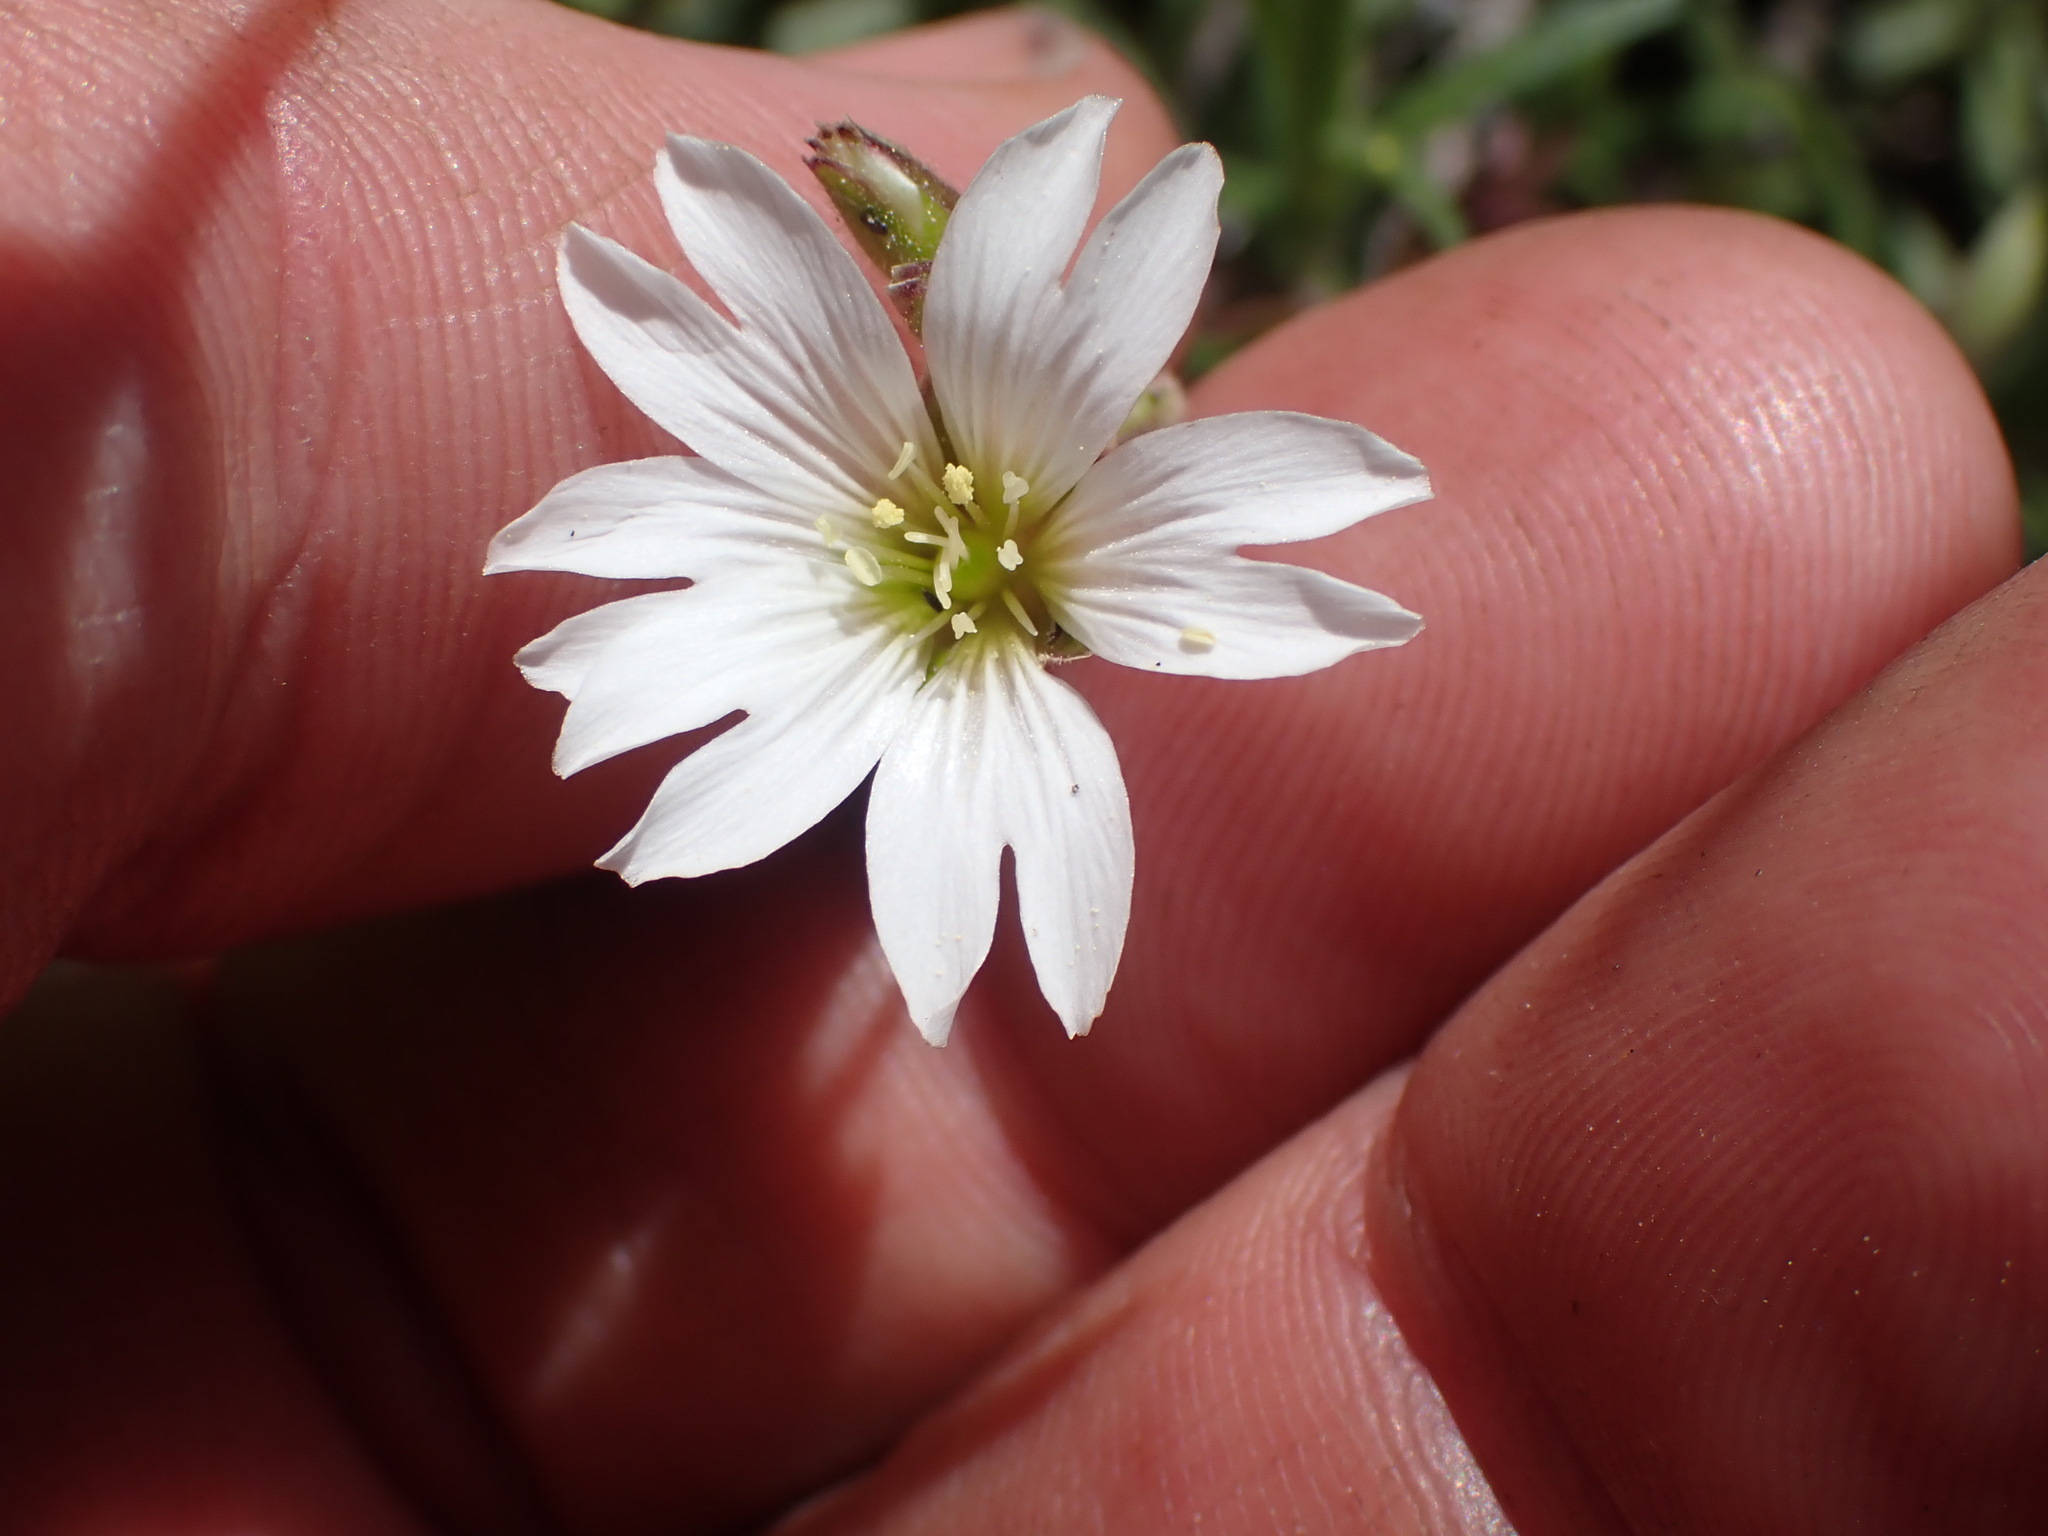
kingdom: Plantae
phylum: Tracheophyta
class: Magnoliopsida
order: Caryophyllales
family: Caryophyllaceae
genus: Cerastium
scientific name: Cerastium arvense
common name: Field mouse-ear
